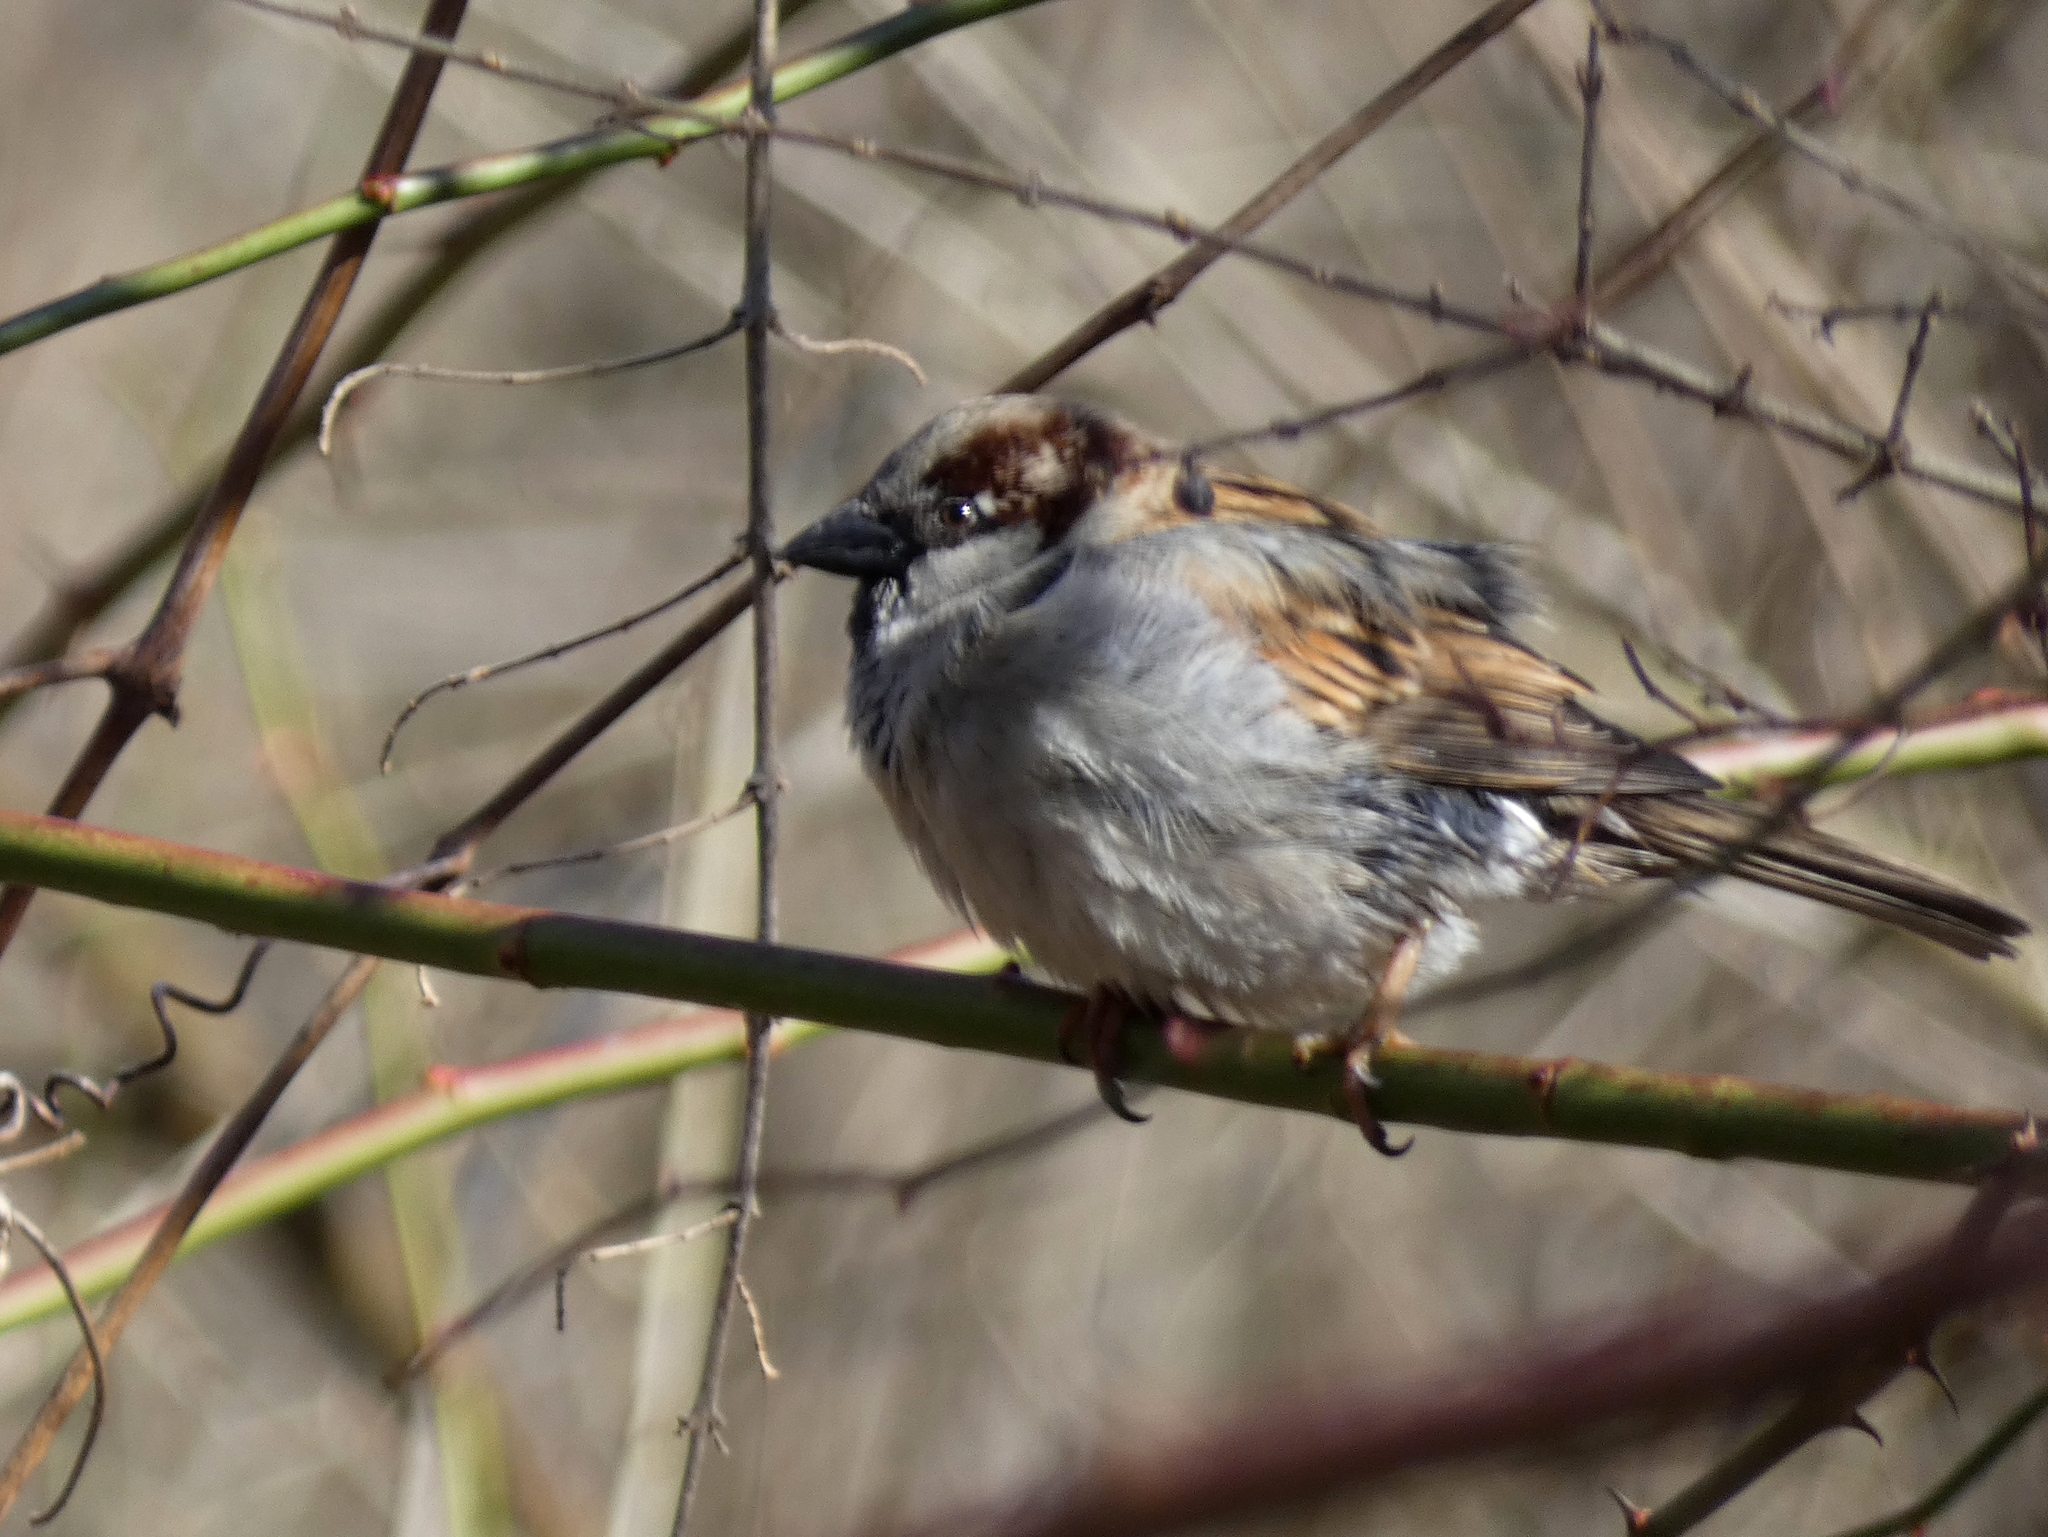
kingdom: Animalia
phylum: Chordata
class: Aves
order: Passeriformes
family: Passeridae
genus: Passer
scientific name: Passer domesticus
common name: House sparrow
